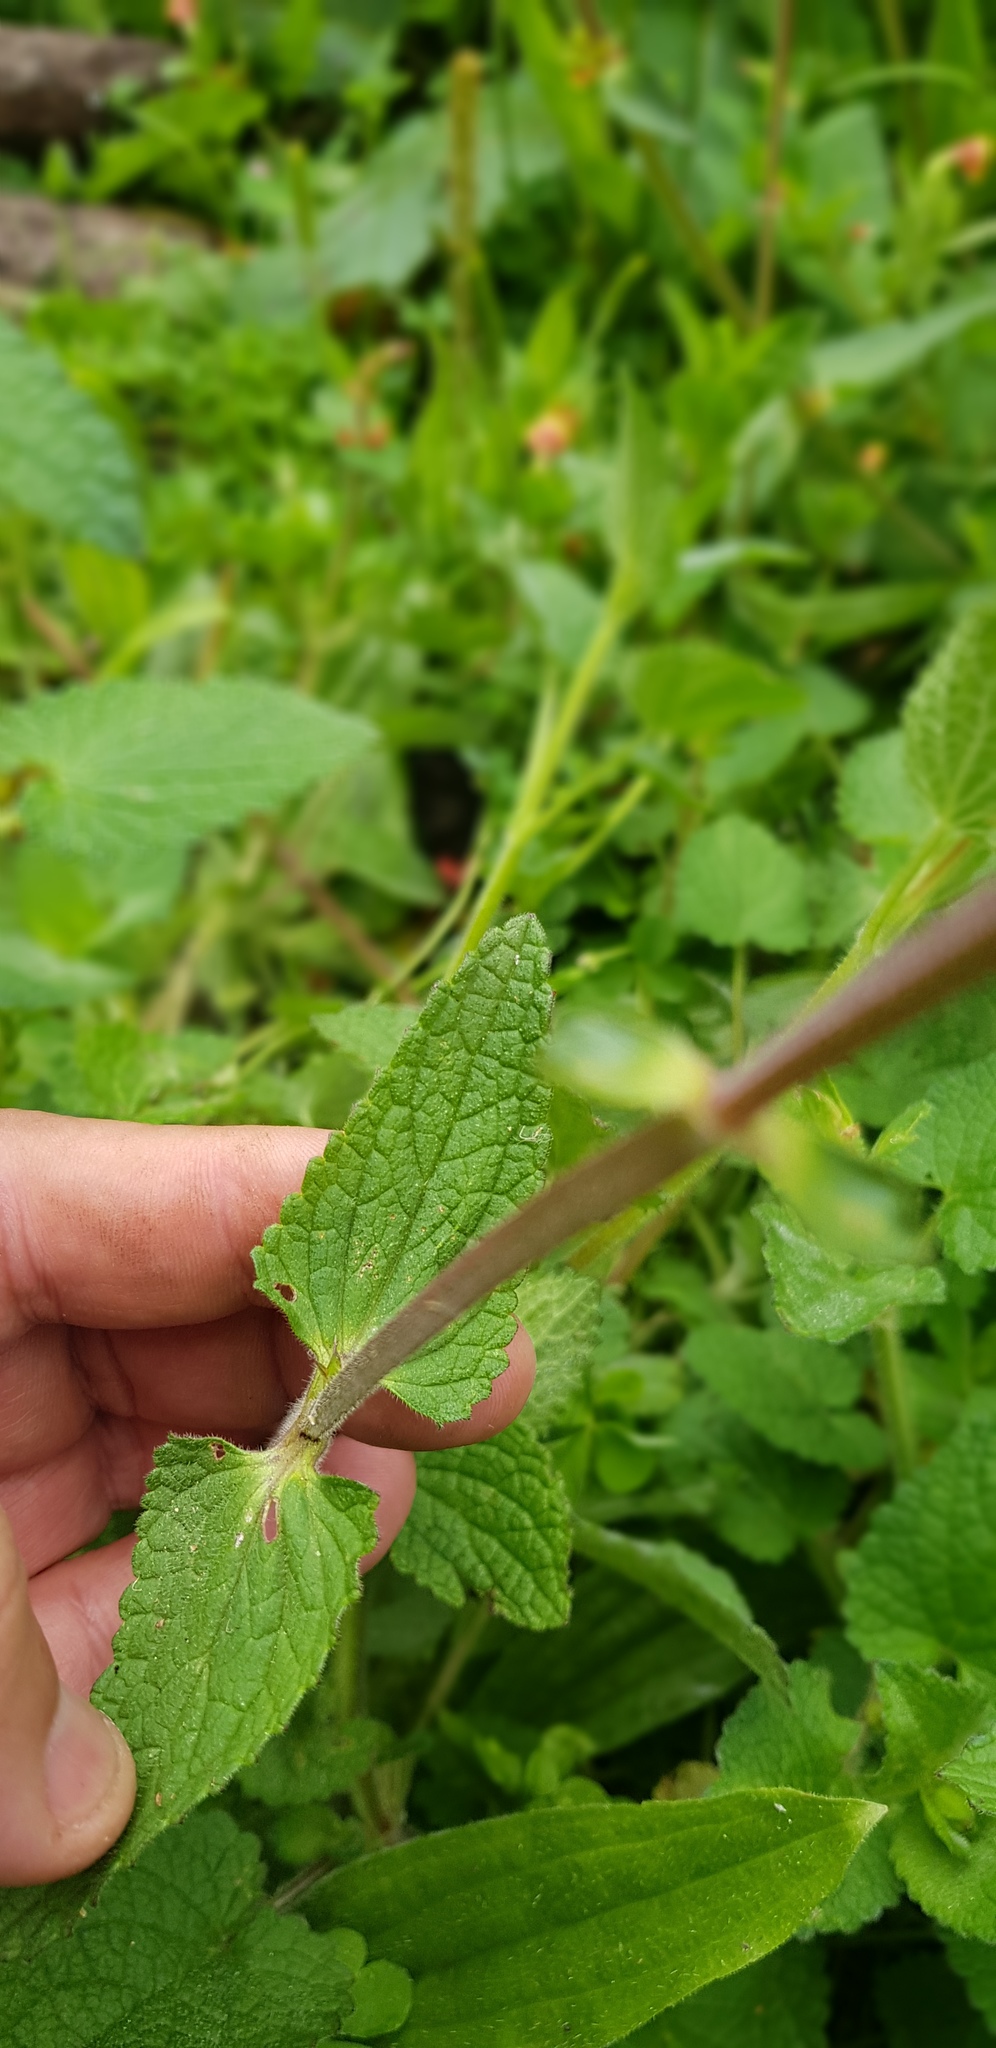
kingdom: Plantae
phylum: Tracheophyta
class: Magnoliopsida
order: Lamiales
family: Lamiaceae
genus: Stachys
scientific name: Stachys coccinea
